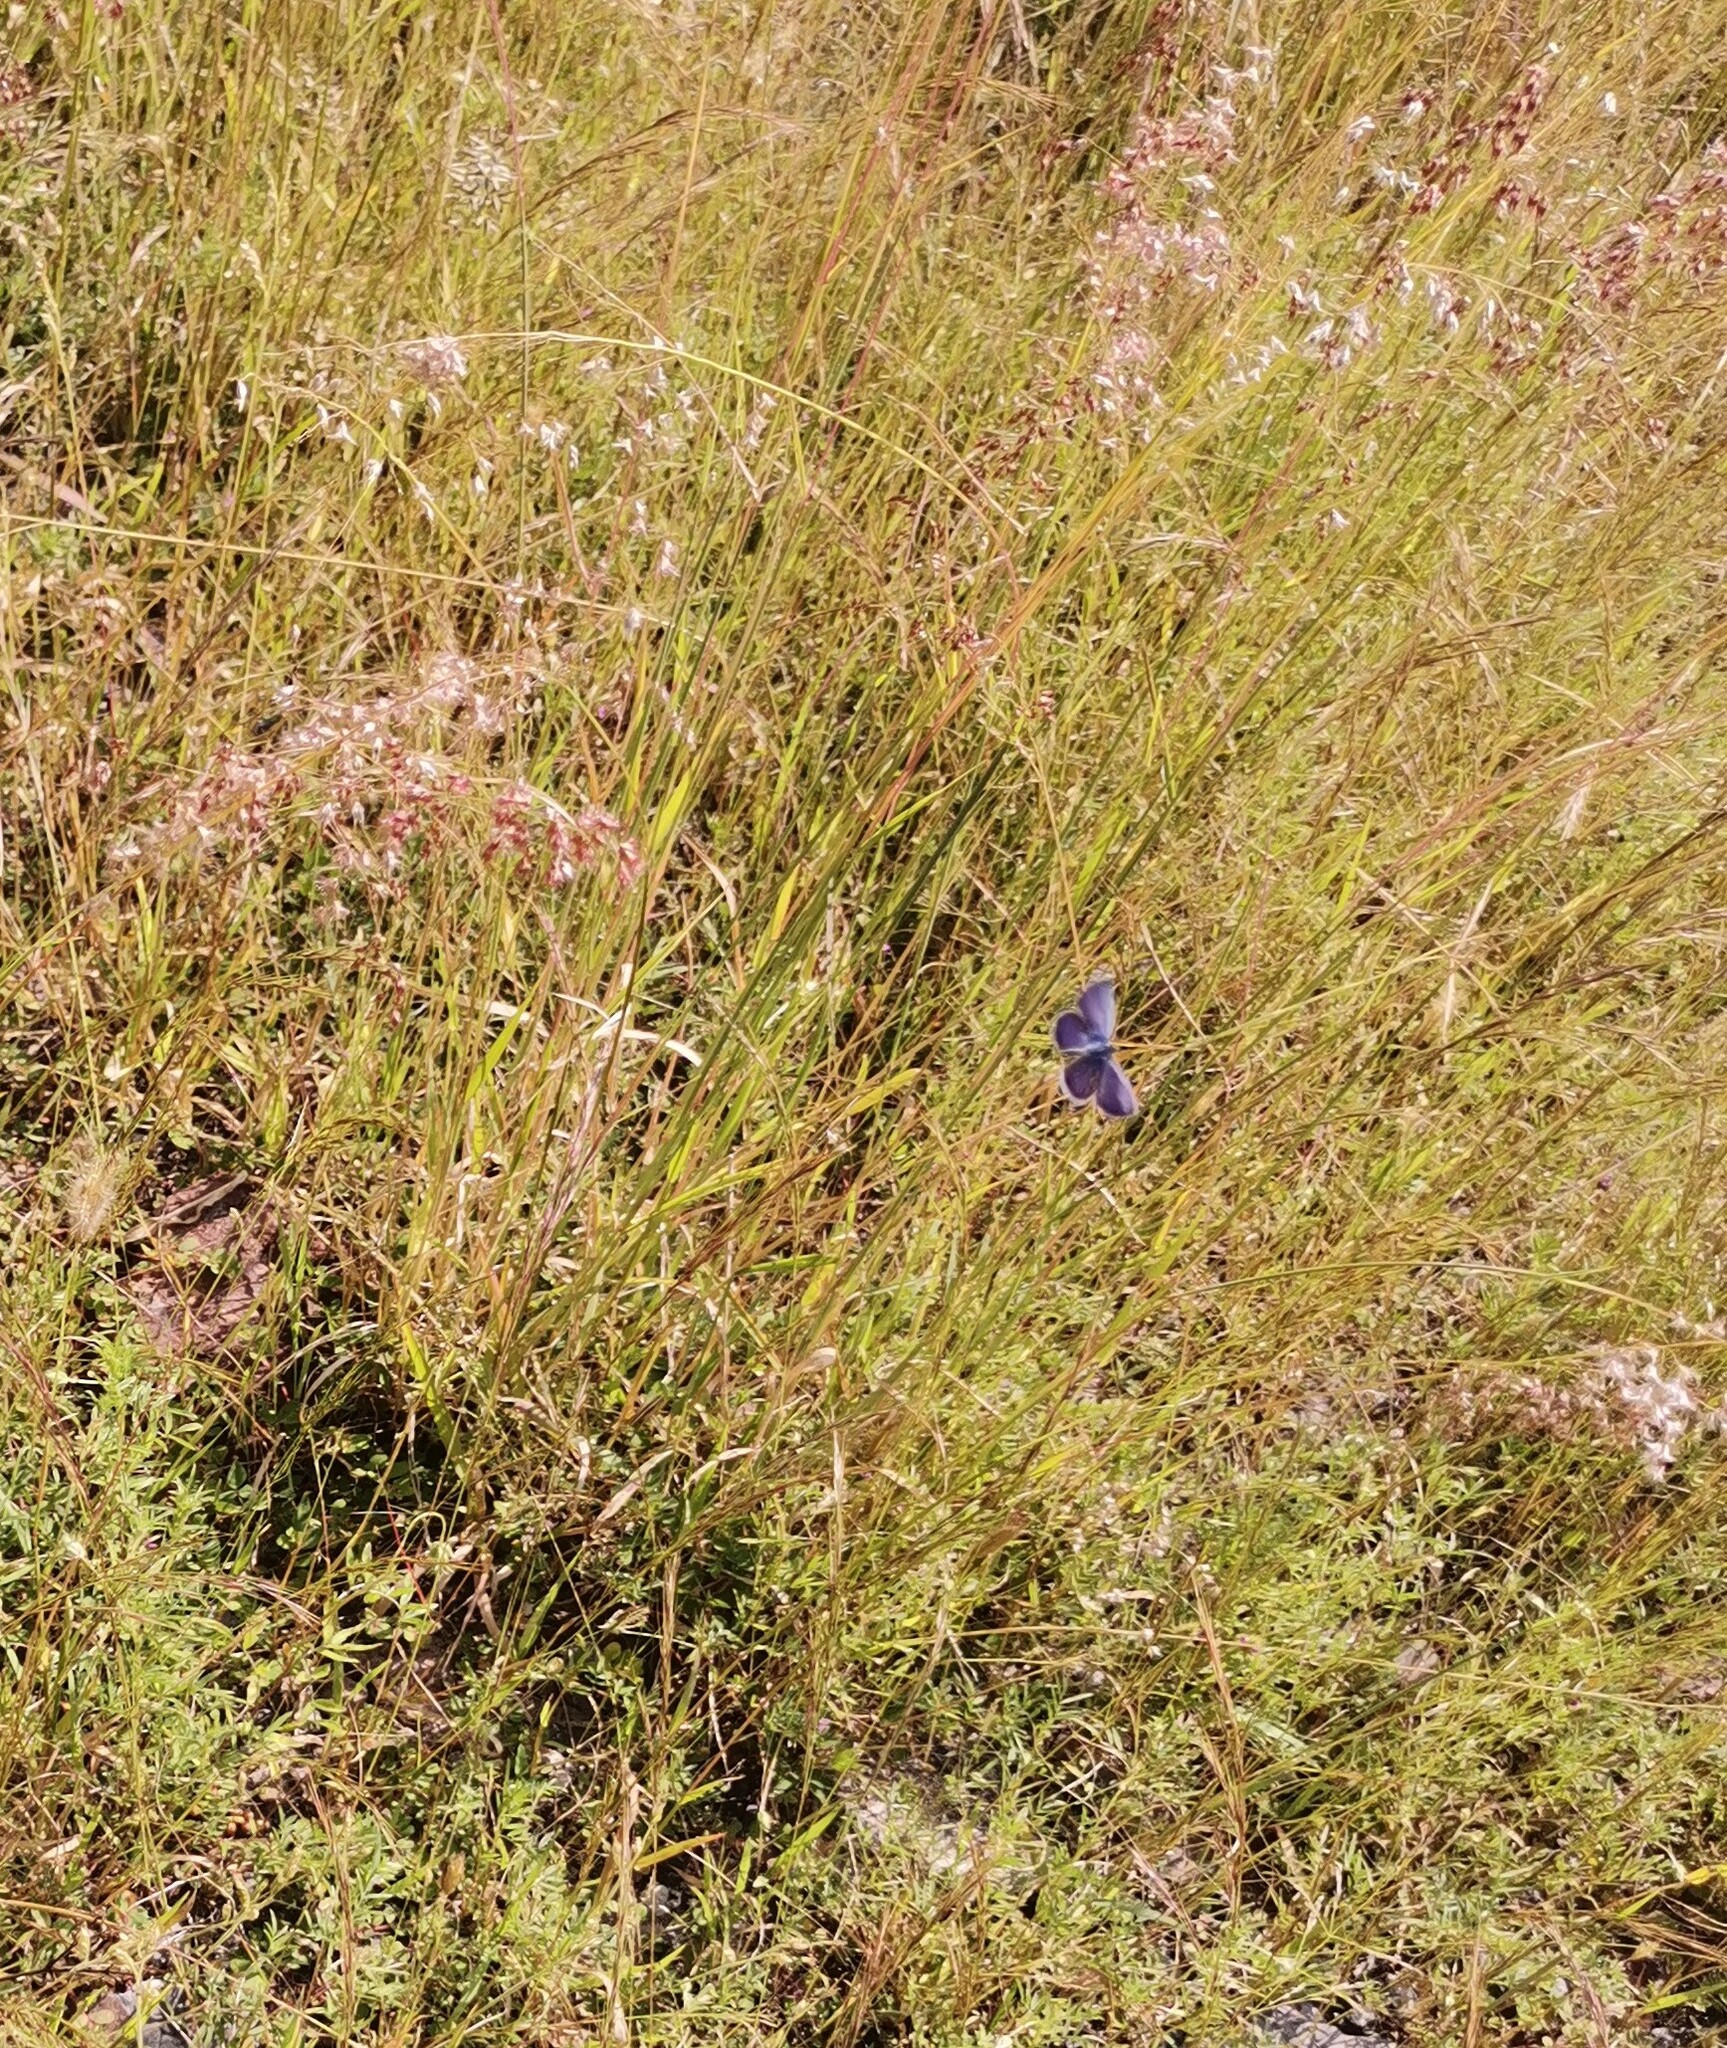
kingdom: Plantae
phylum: Tracheophyta
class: Liliopsida
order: Poales
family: Poaceae
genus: Melinis
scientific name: Melinis repens
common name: Rose natal grass
